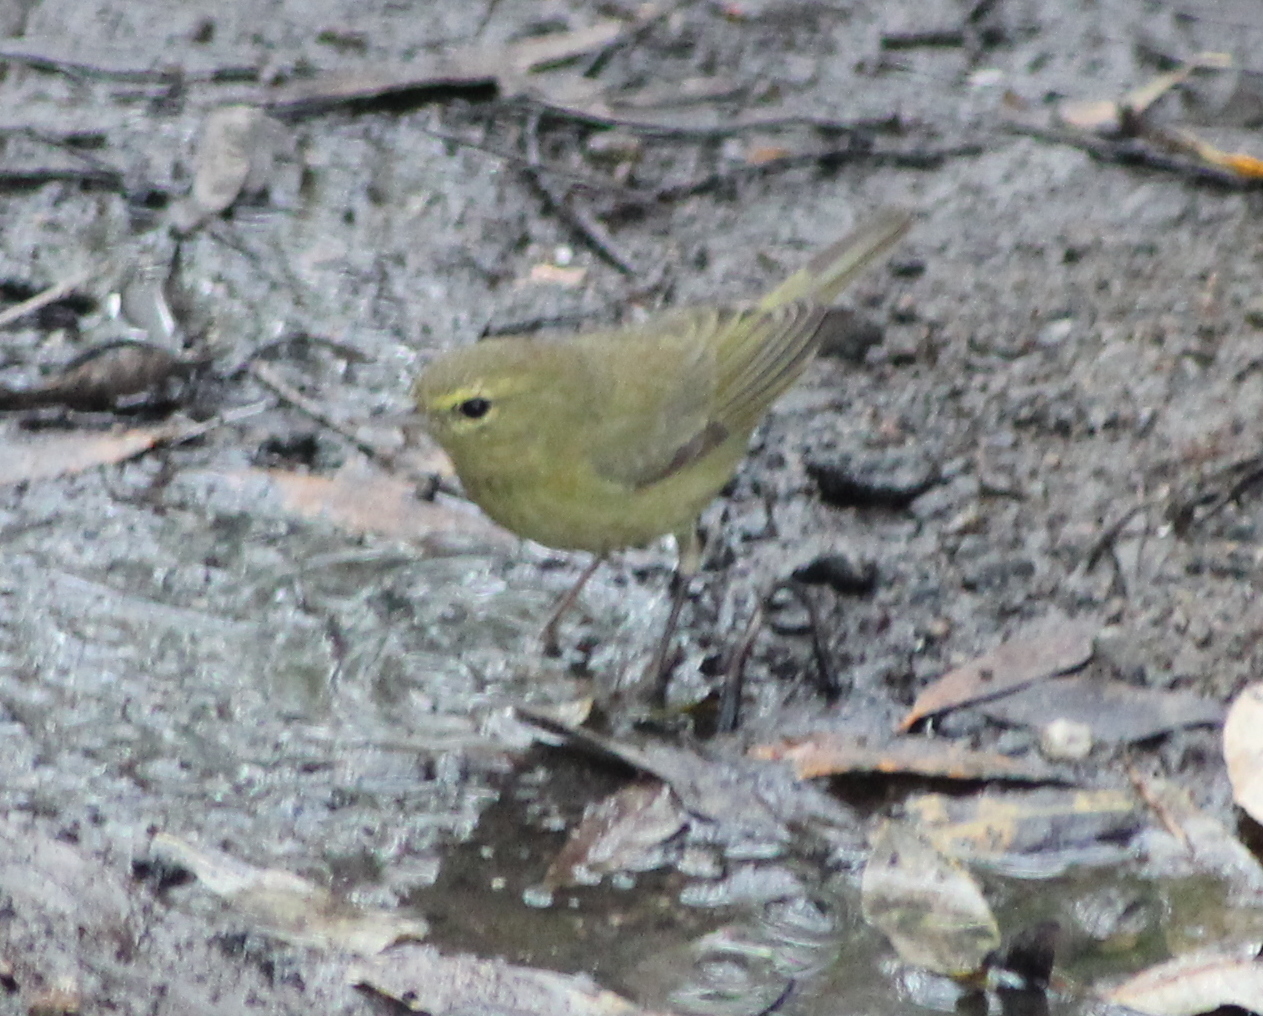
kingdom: Animalia
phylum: Chordata
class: Aves
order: Passeriformes
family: Parulidae
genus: Leiothlypis
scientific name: Leiothlypis celata
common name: Orange-crowned warbler
